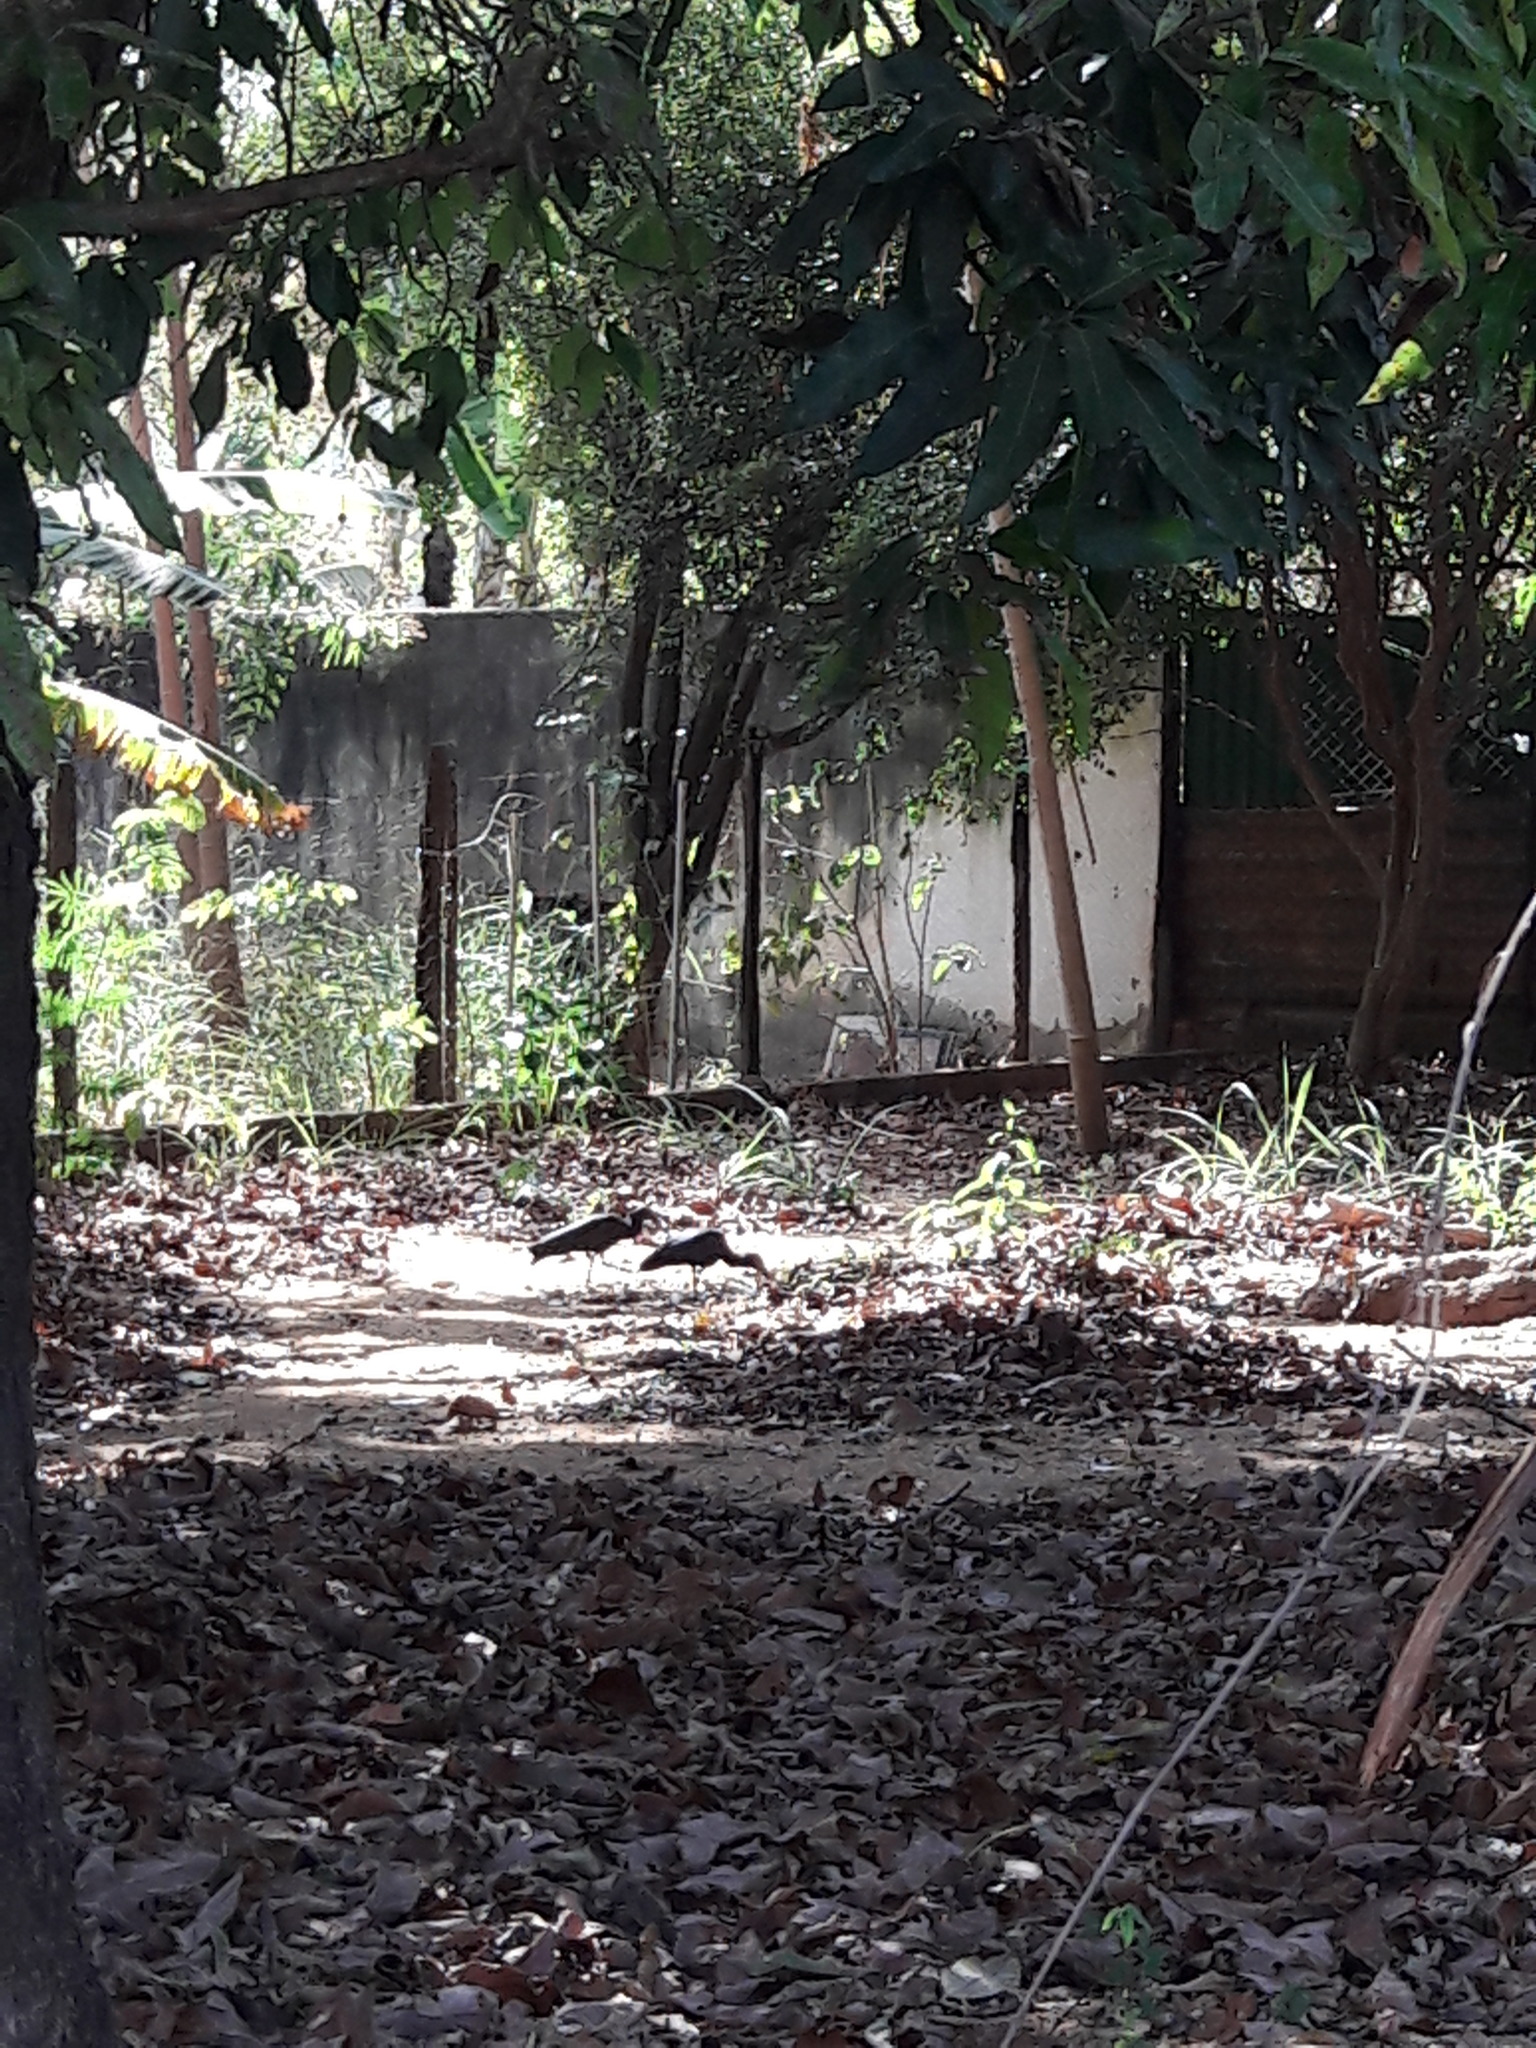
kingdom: Animalia
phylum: Chordata
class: Aves
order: Pelecaniformes
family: Threskiornithidae
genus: Mesembrinibis
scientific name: Mesembrinibis cayennensis
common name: Green ibis
